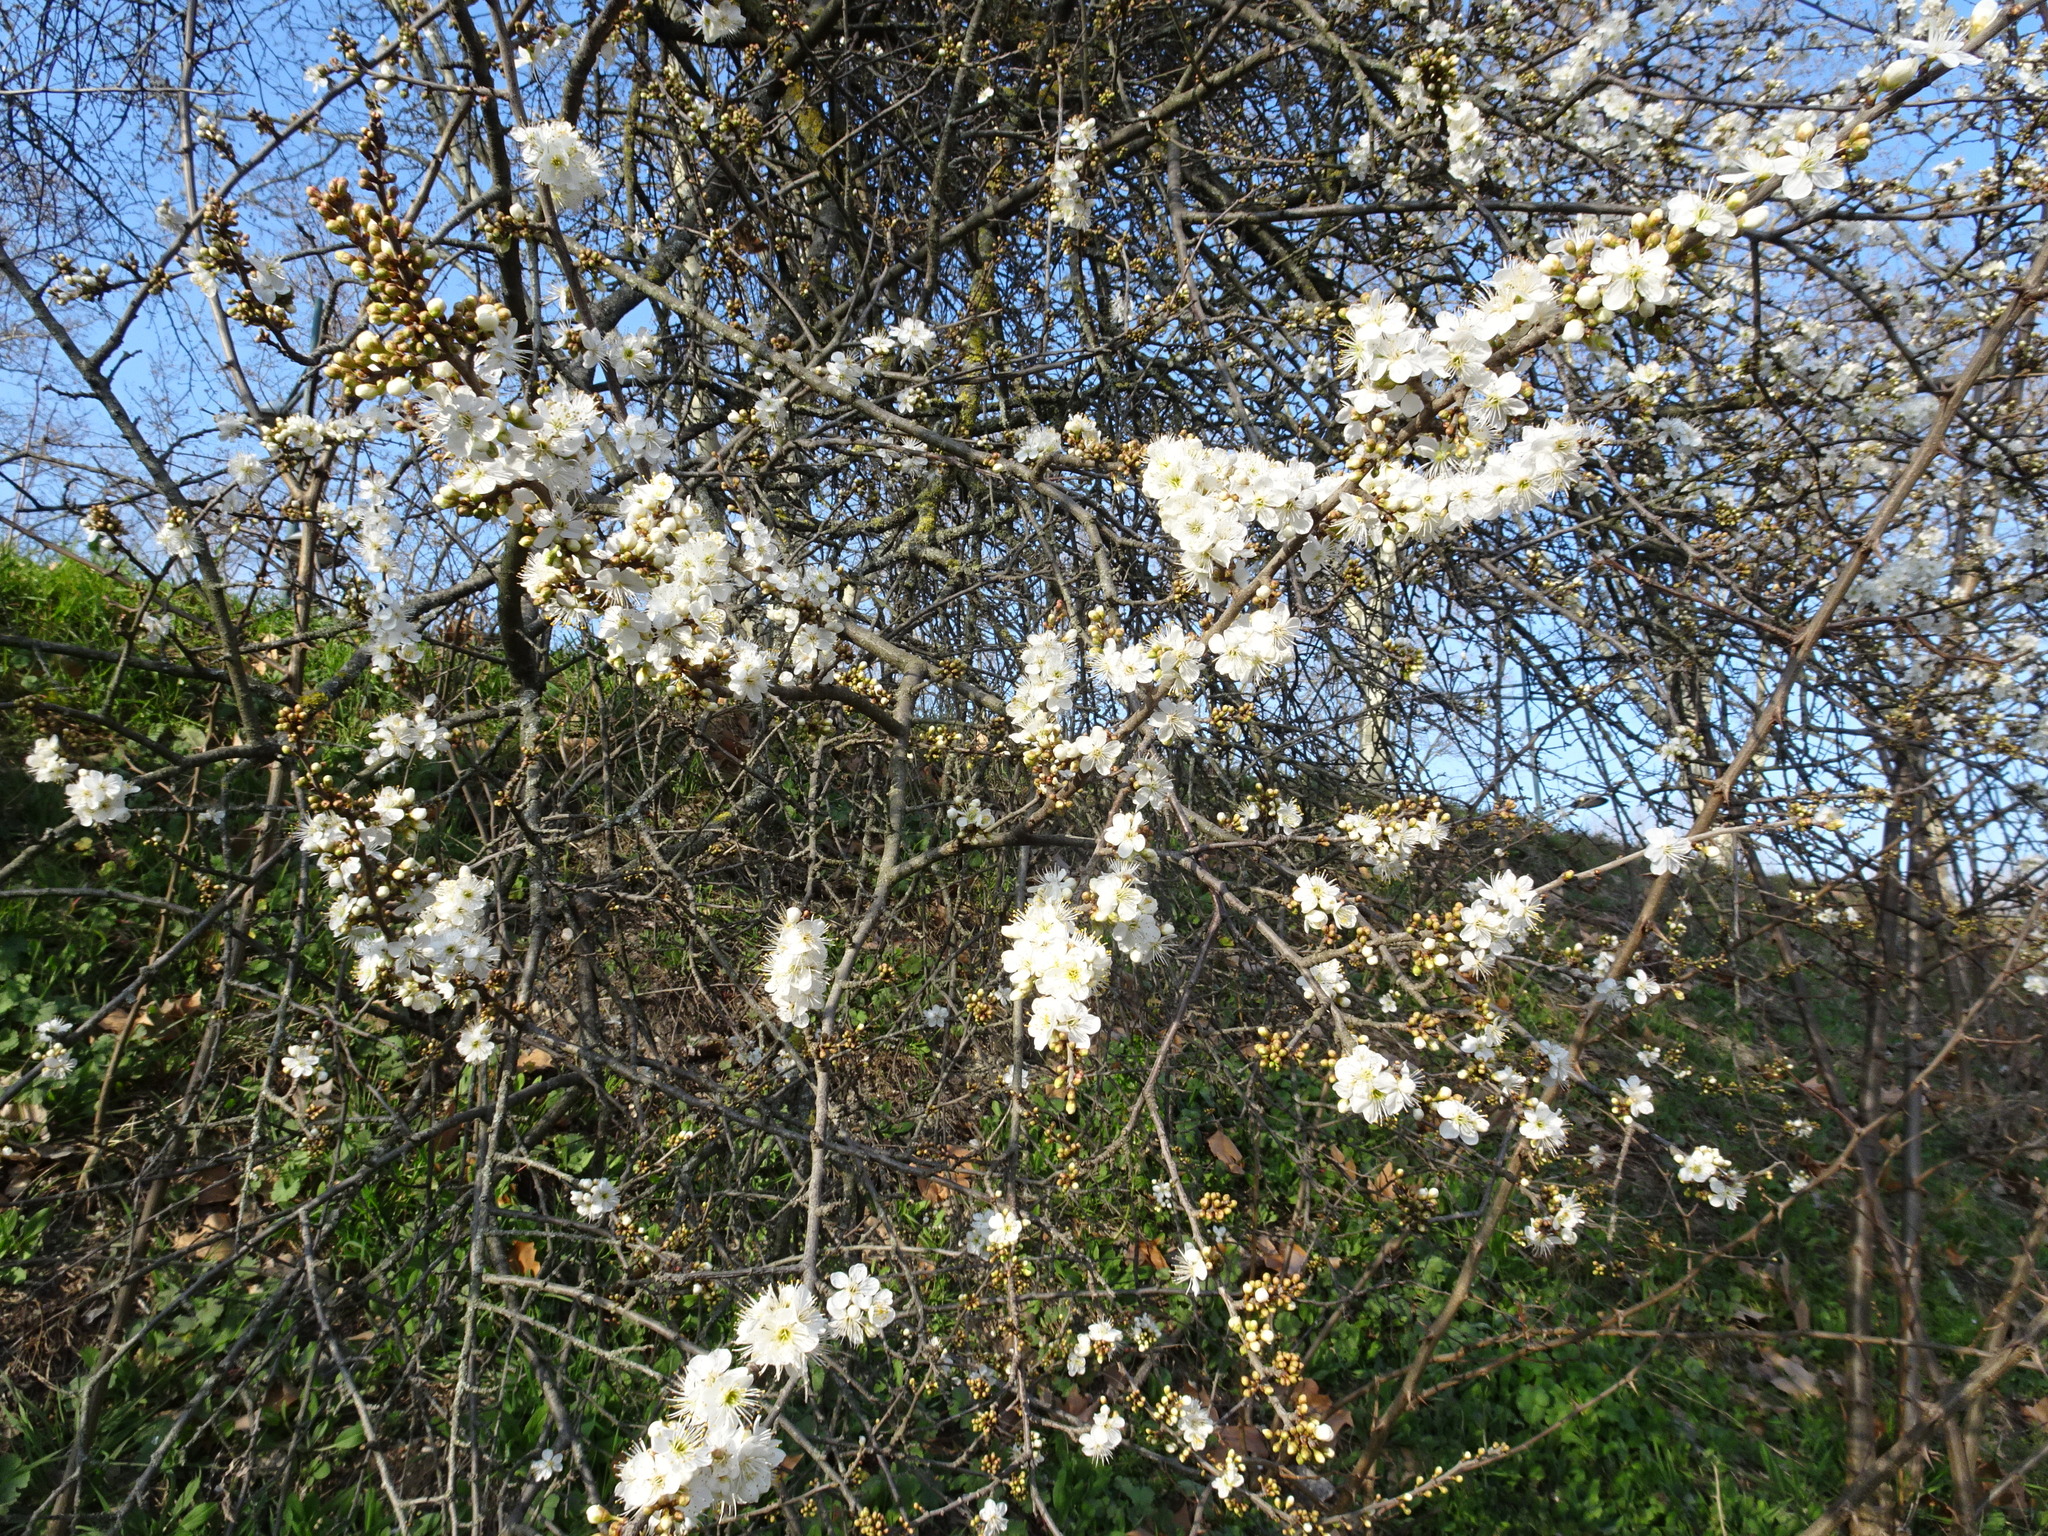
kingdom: Plantae
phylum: Tracheophyta
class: Magnoliopsida
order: Rosales
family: Rosaceae
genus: Prunus
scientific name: Prunus spinosa
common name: Blackthorn
